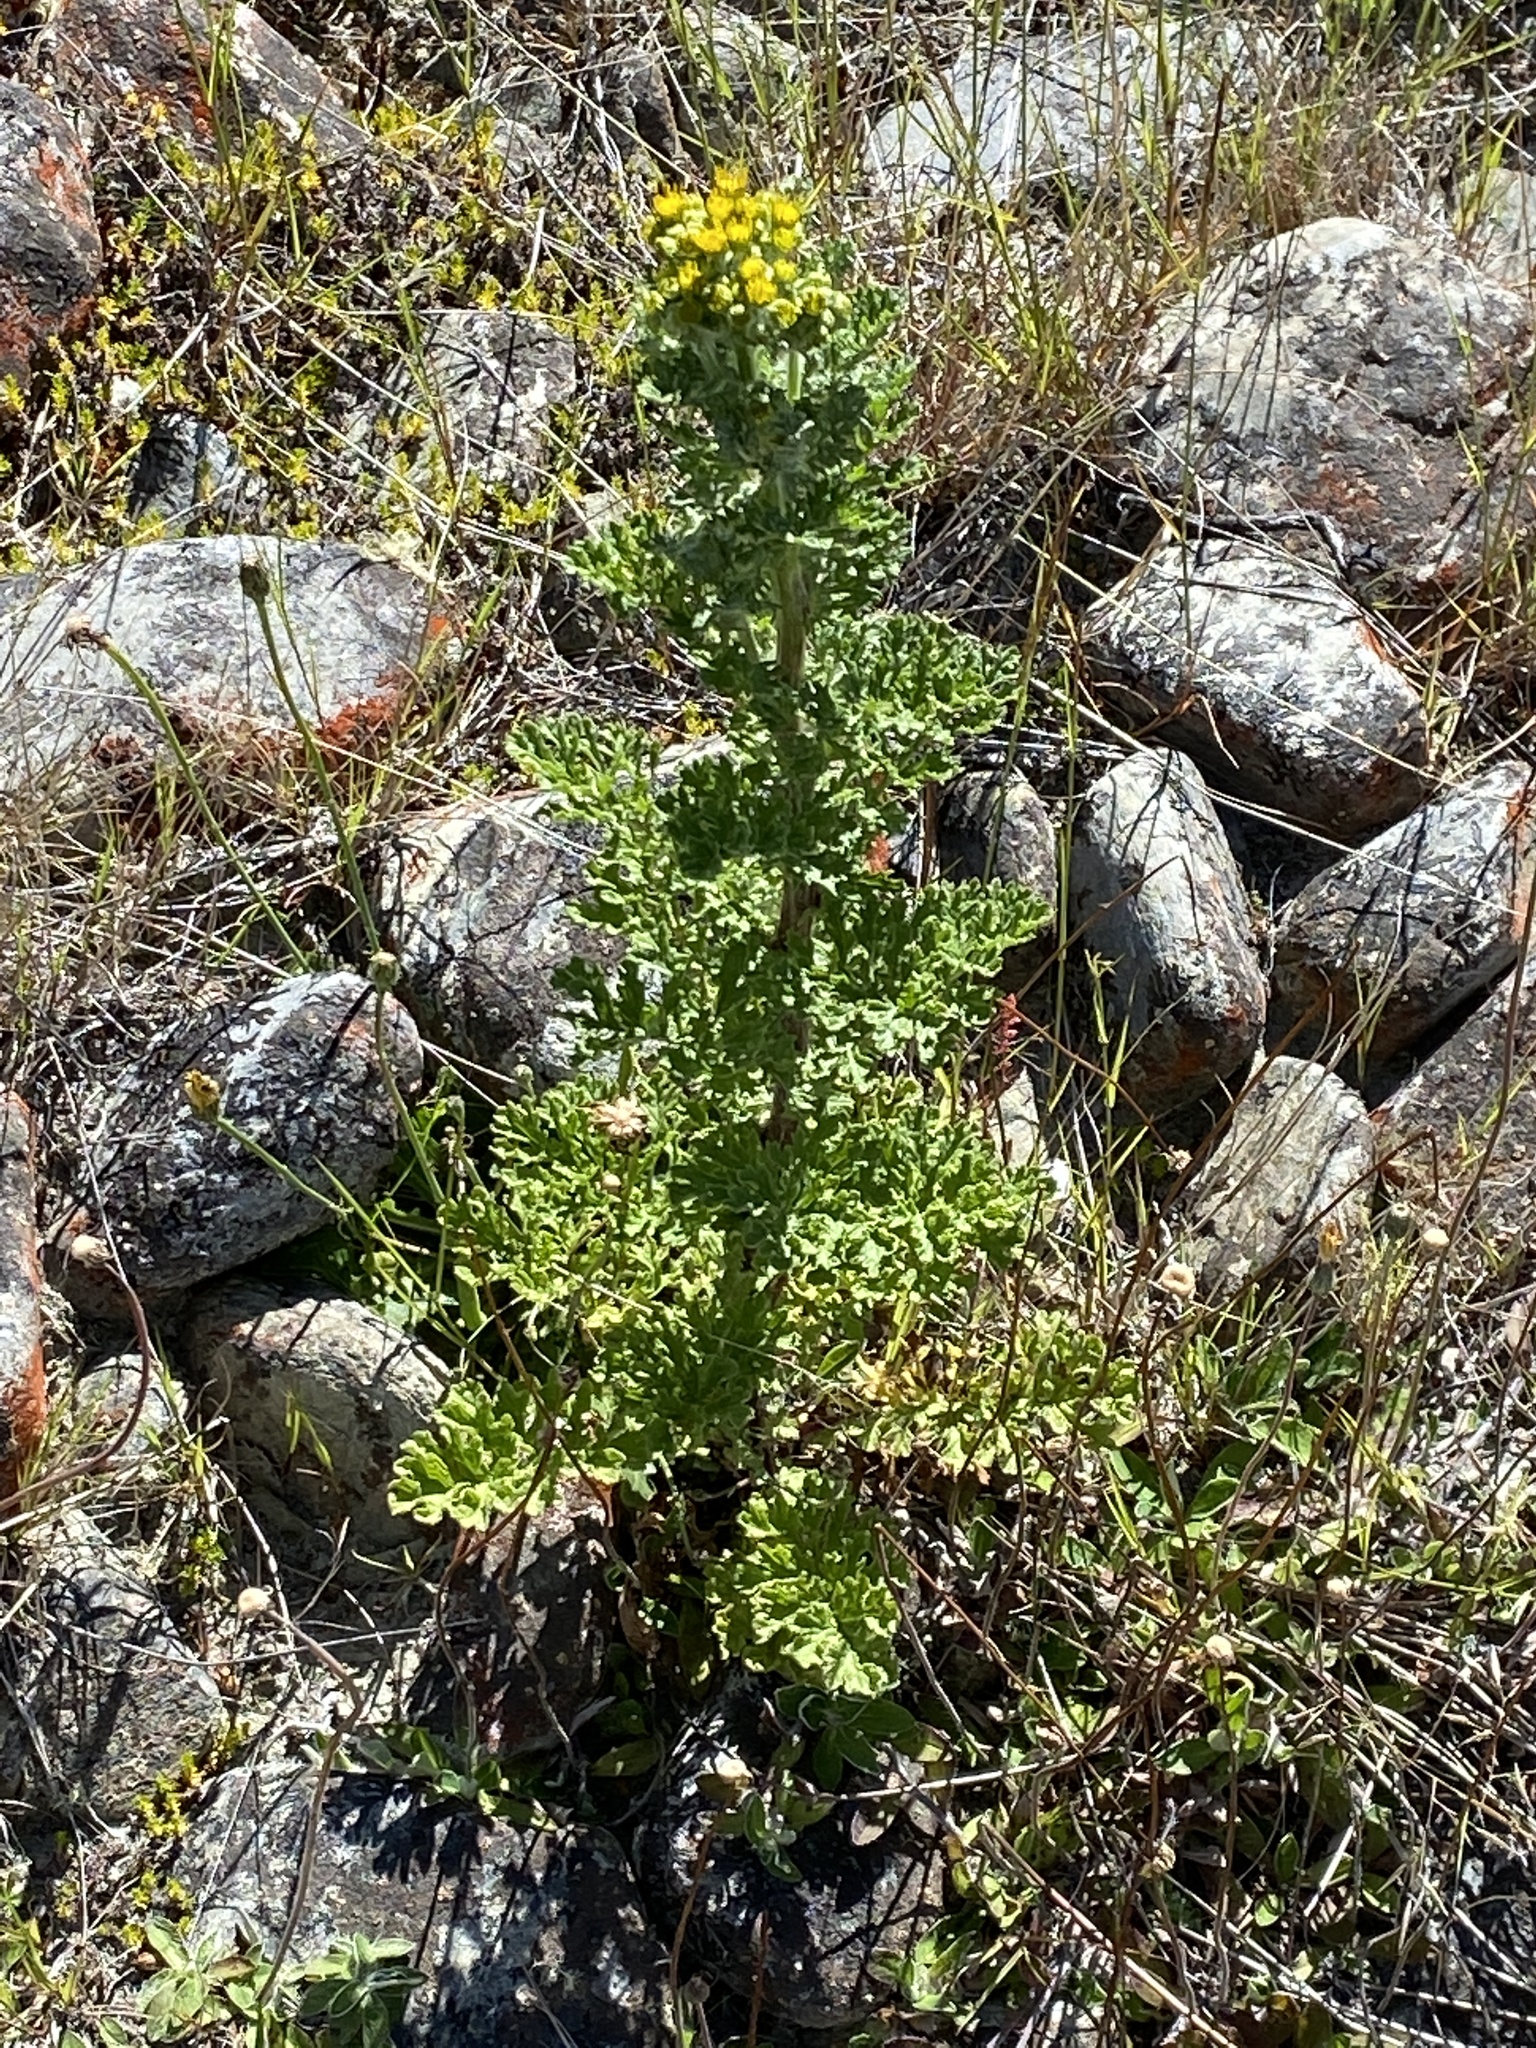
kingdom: Plantae
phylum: Tracheophyta
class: Magnoliopsida
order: Asterales
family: Asteraceae
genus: Jacobaea
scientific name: Jacobaea vulgaris
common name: Stinking willie
